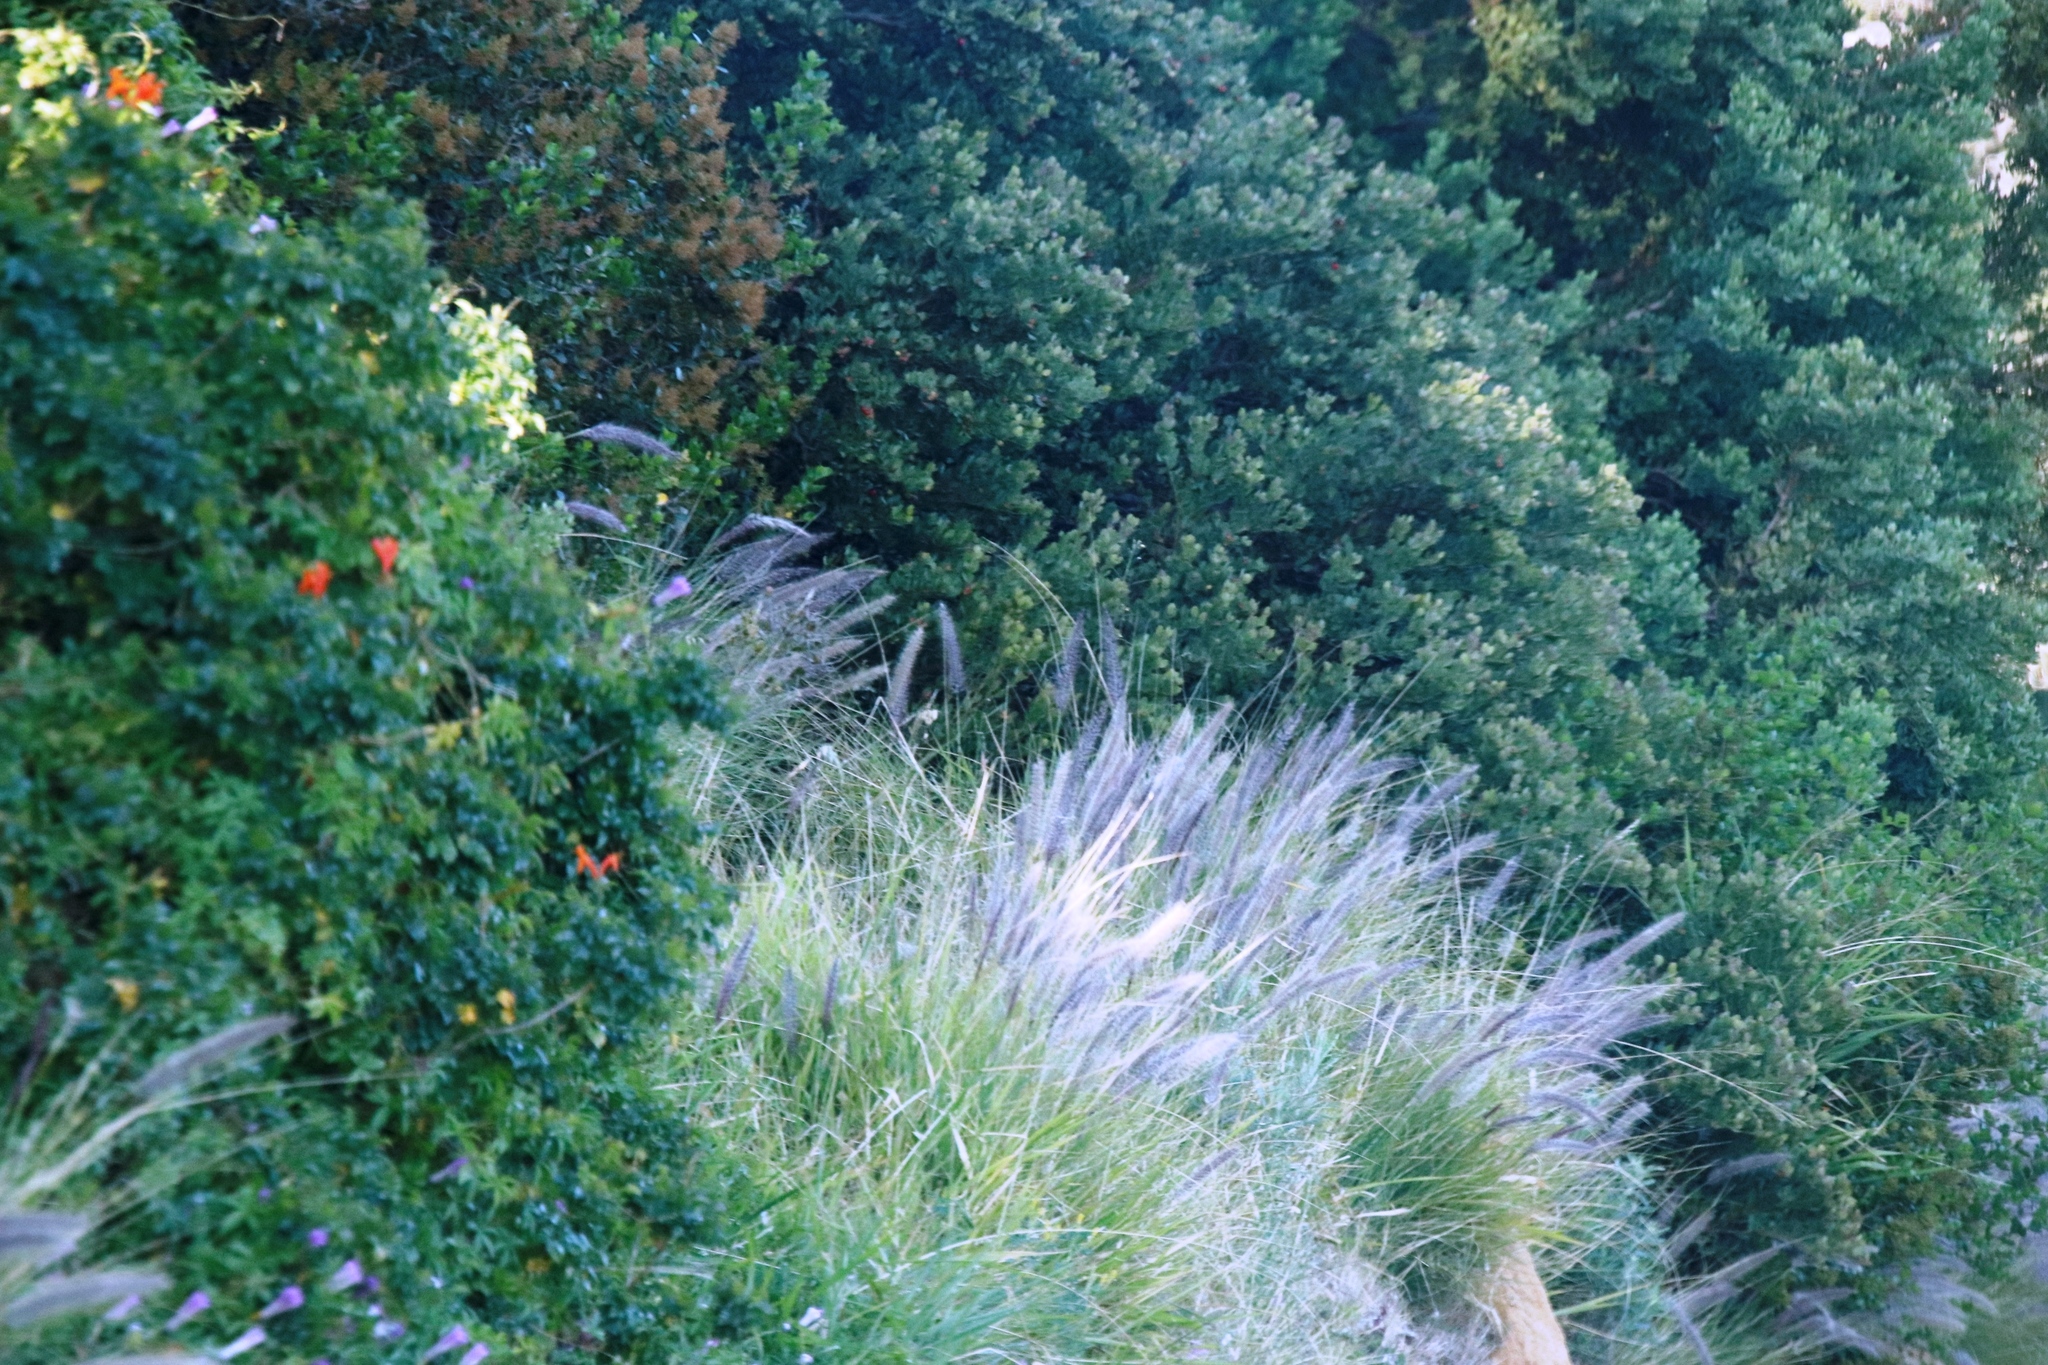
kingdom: Plantae
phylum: Tracheophyta
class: Liliopsida
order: Poales
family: Poaceae
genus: Cenchrus
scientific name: Cenchrus setaceus
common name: Crimson fountaingrass
